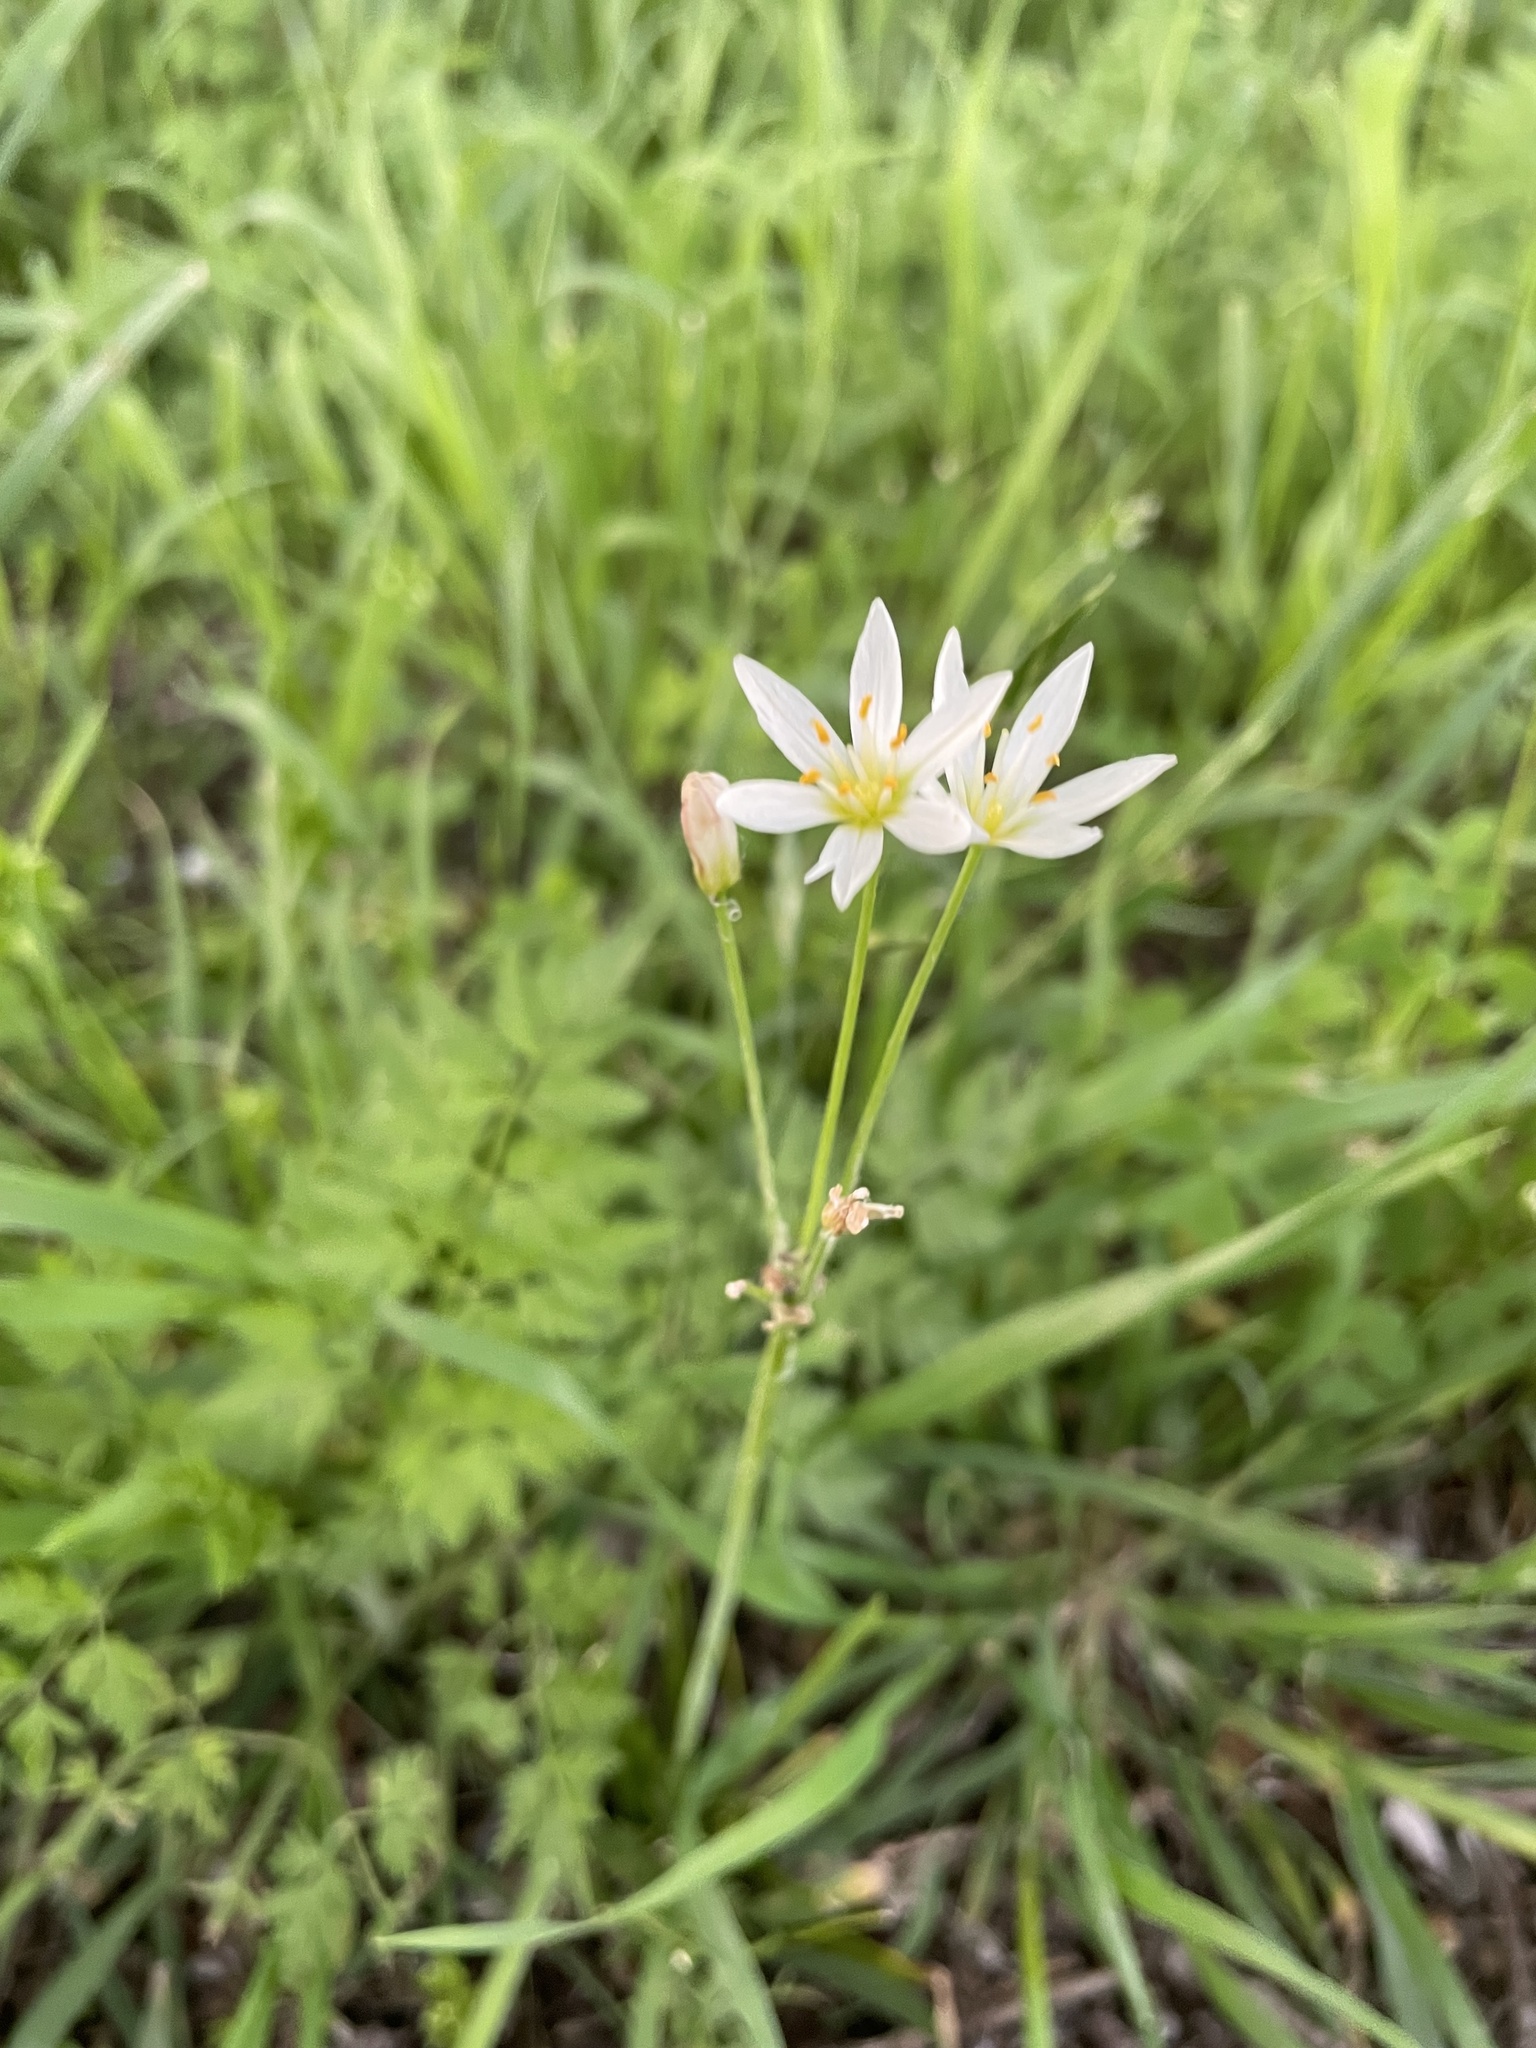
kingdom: Plantae
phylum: Tracheophyta
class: Liliopsida
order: Asparagales
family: Amaryllidaceae
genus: Nothoscordum
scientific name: Nothoscordum bivalve
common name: Crow-poison
